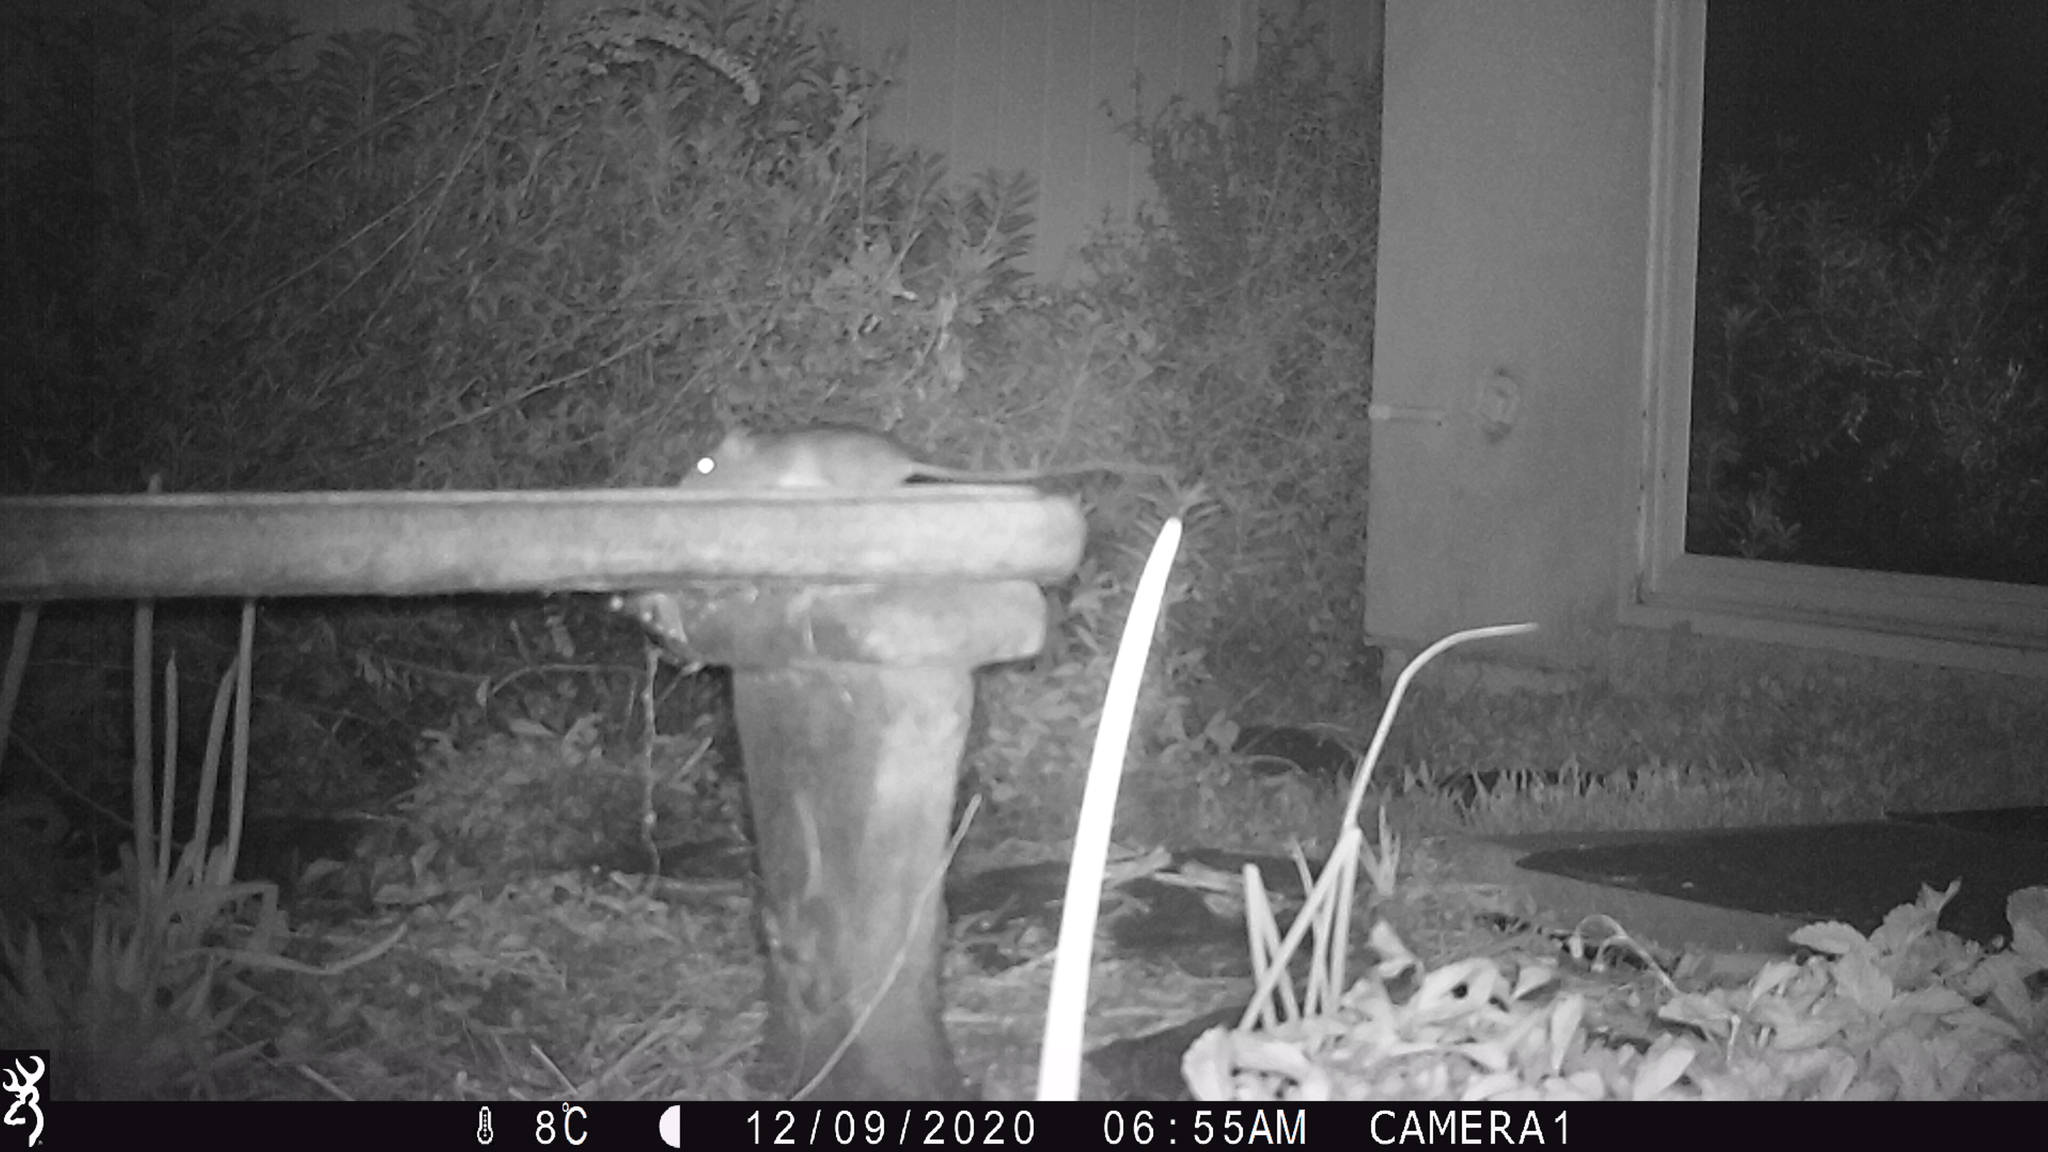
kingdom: Animalia
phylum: Chordata
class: Mammalia
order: Rodentia
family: Muridae
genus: Rattus
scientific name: Rattus rattus
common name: Black rat
